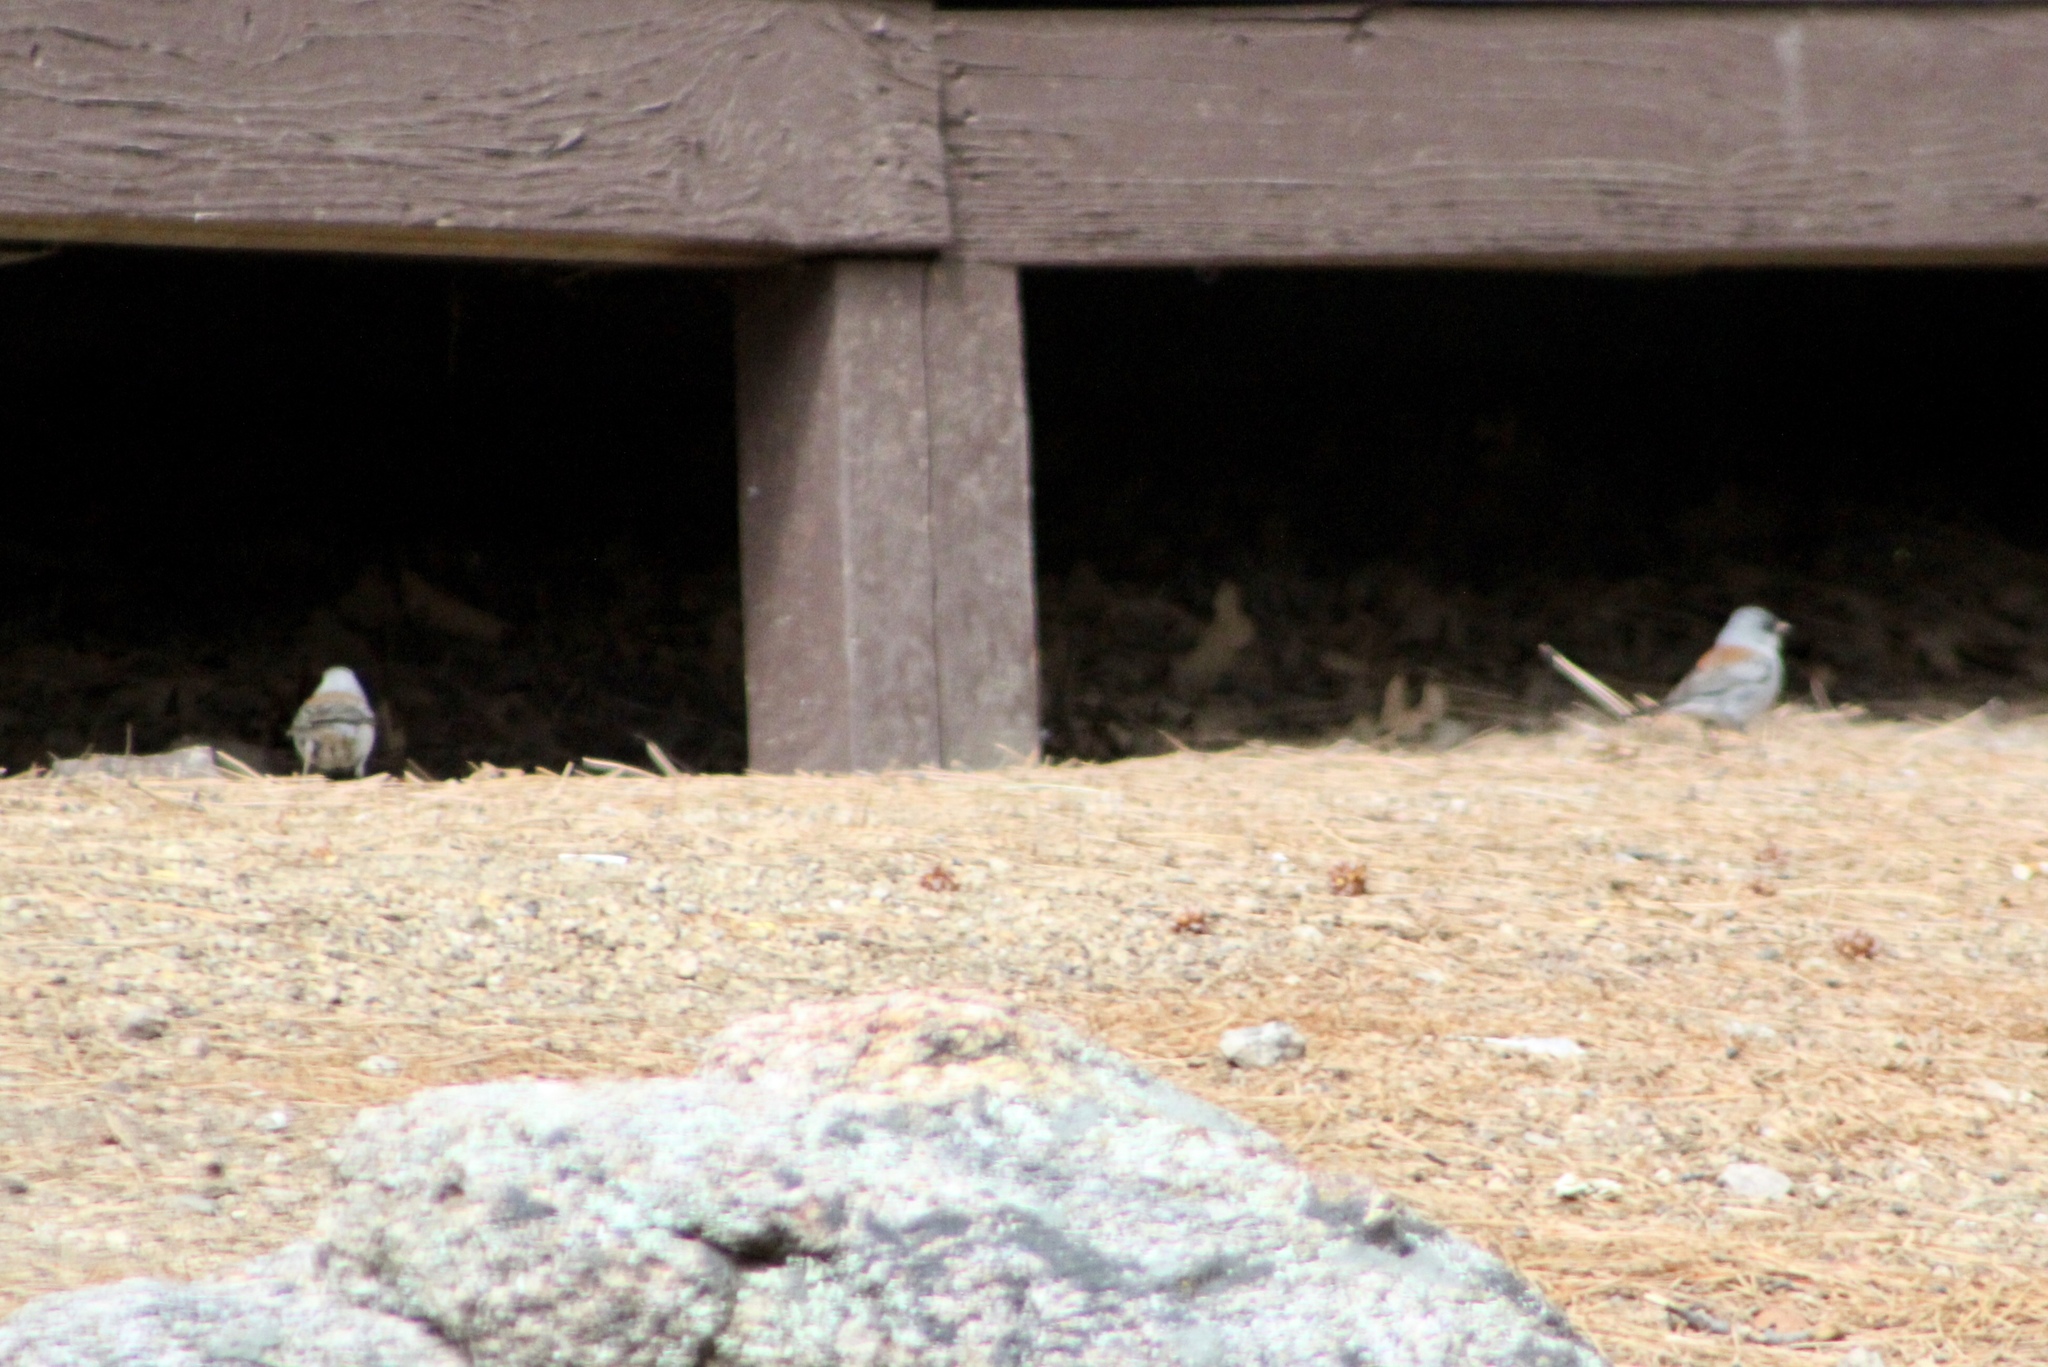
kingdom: Animalia
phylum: Chordata
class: Aves
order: Passeriformes
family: Passerellidae
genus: Junco
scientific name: Junco hyemalis
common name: Dark-eyed junco
